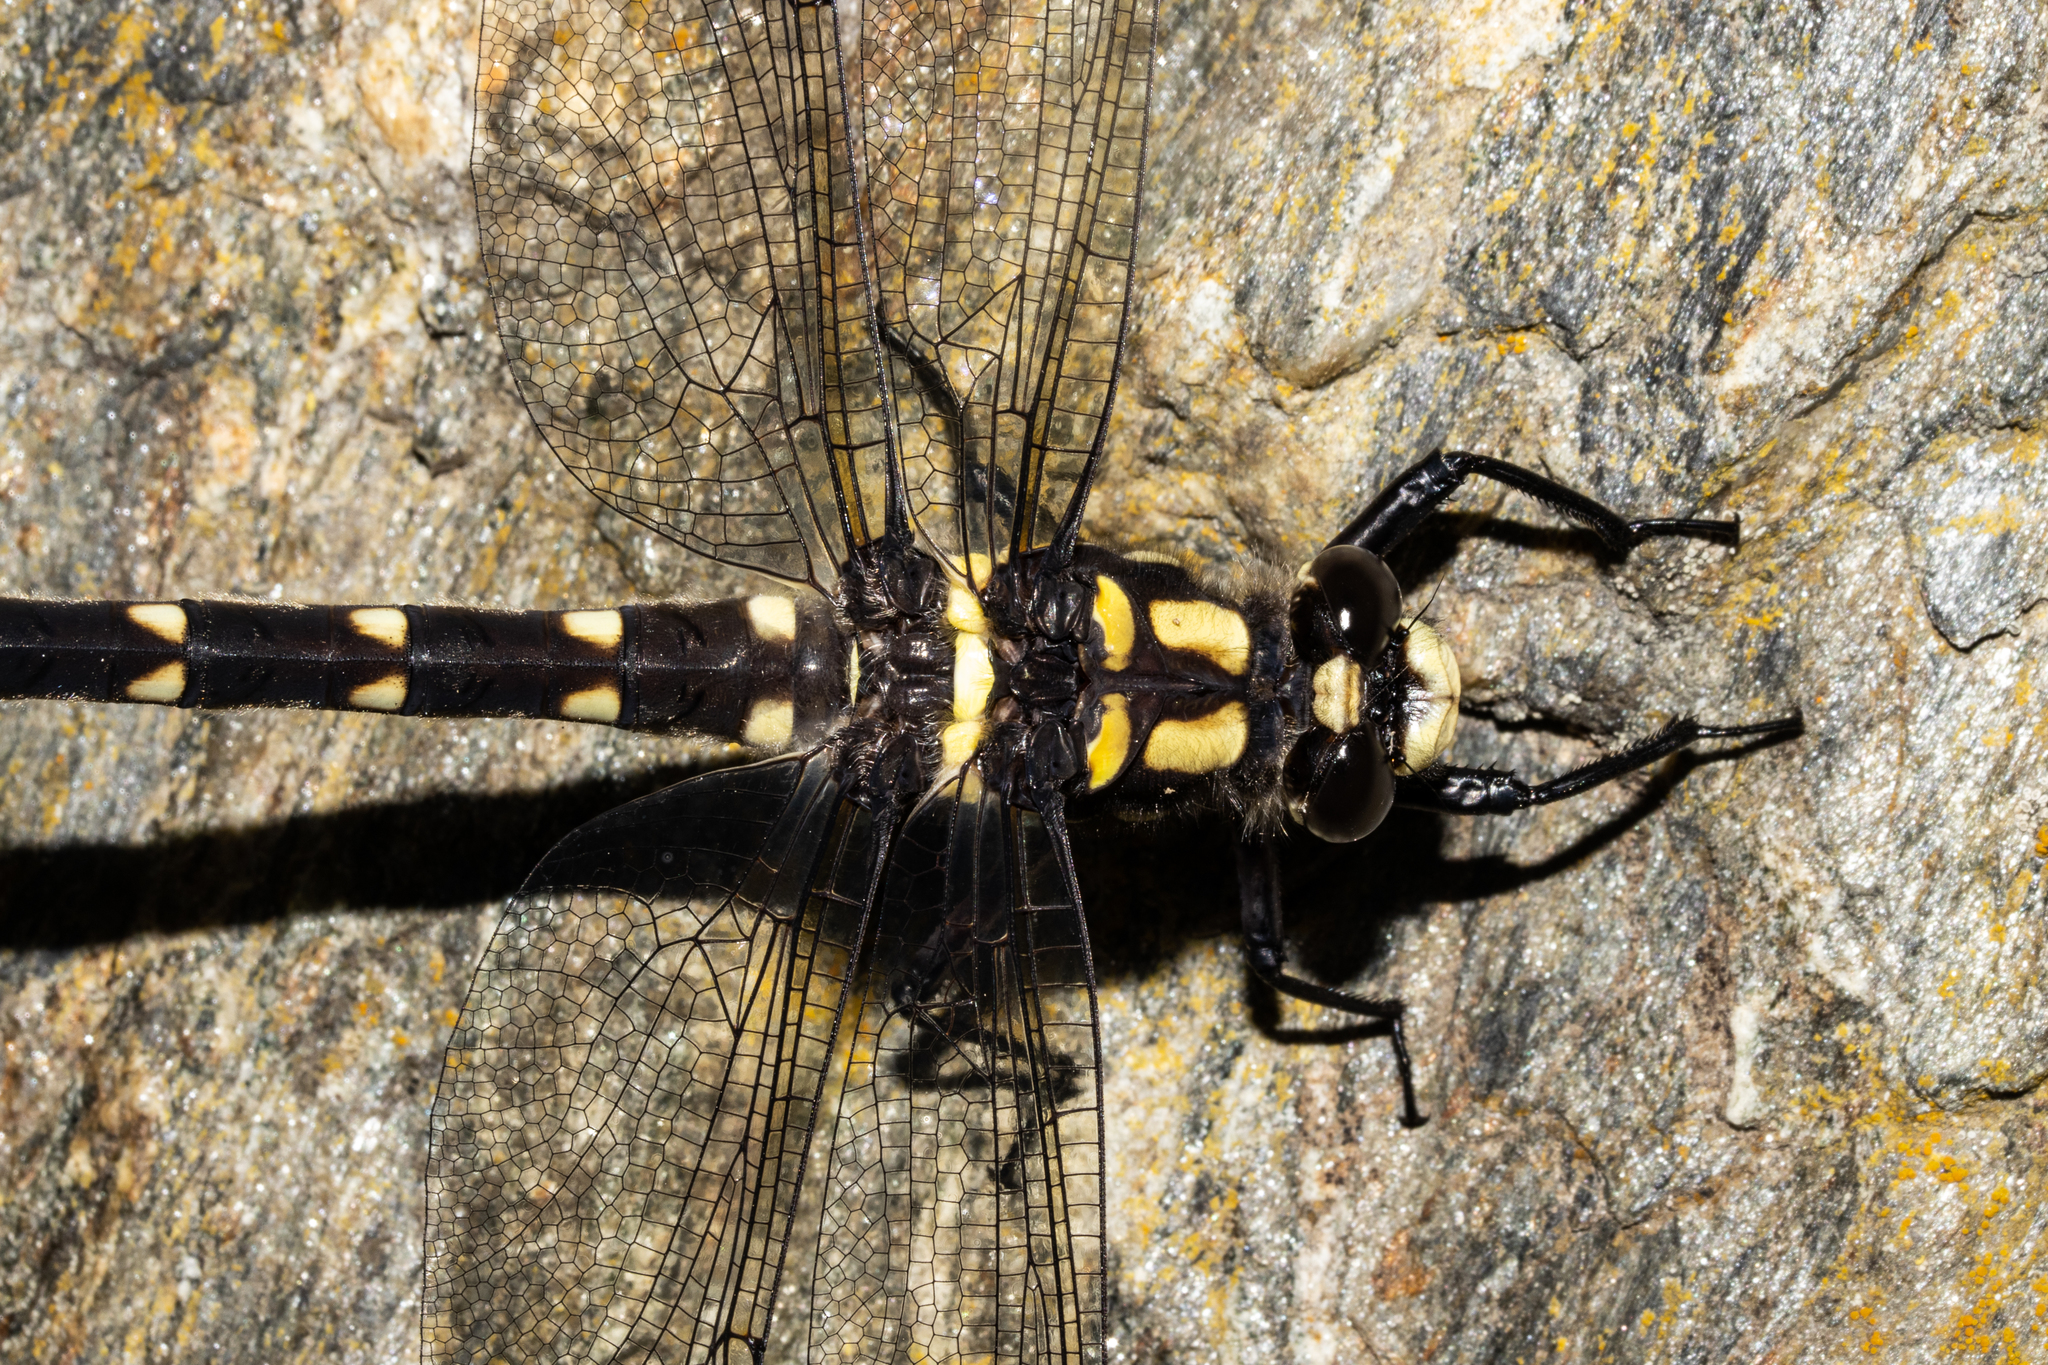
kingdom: Animalia
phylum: Arthropoda
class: Insecta
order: Odonata
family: Petaluridae
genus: Uropetala
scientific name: Uropetala carovei
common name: Bush giant dragonfly
